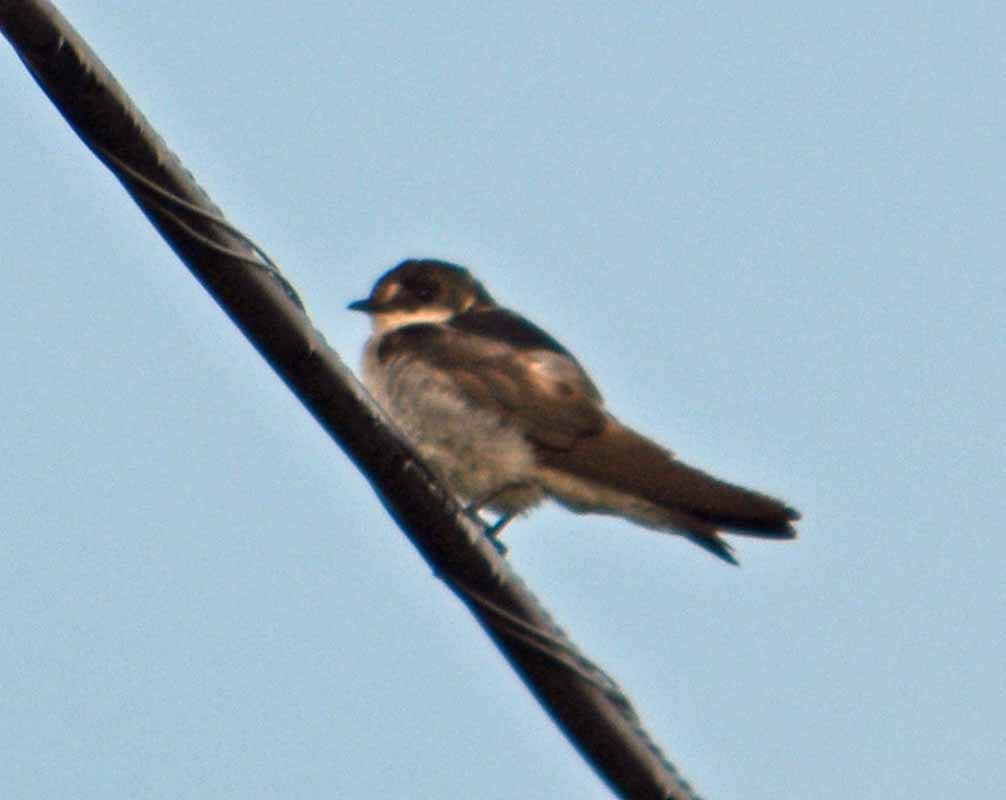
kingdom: Animalia
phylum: Chordata
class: Aves
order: Passeriformes
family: Hirundinidae
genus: Tachycineta
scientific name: Tachycineta albilinea
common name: Mangrove swallow
